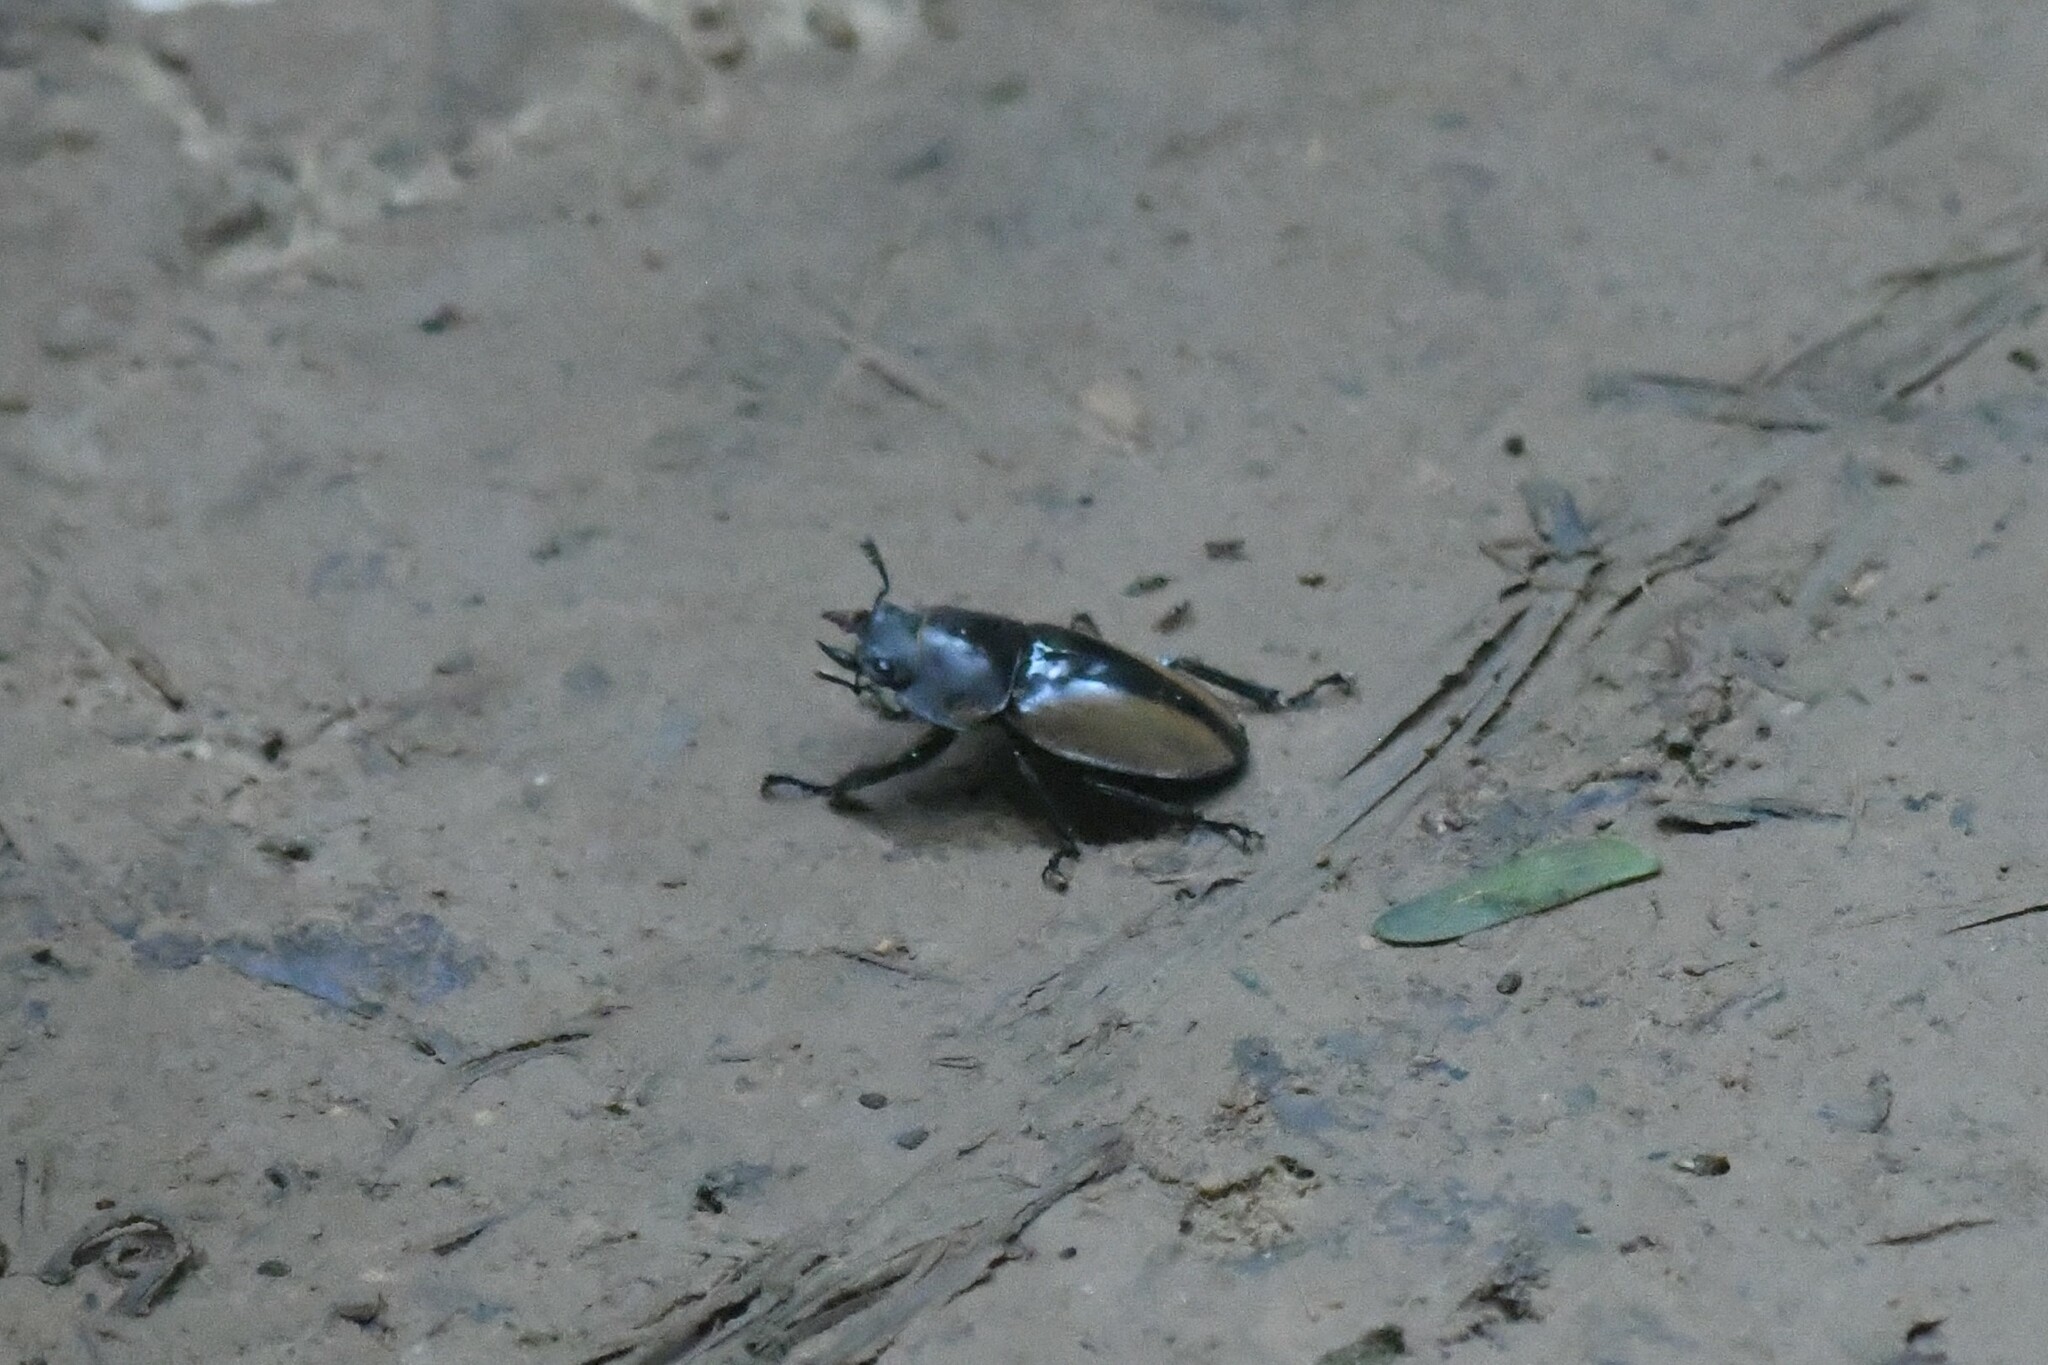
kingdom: Animalia
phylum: Arthropoda
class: Insecta
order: Coleoptera
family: Lucanidae
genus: Odontolabis
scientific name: Odontolabis mouhoti
